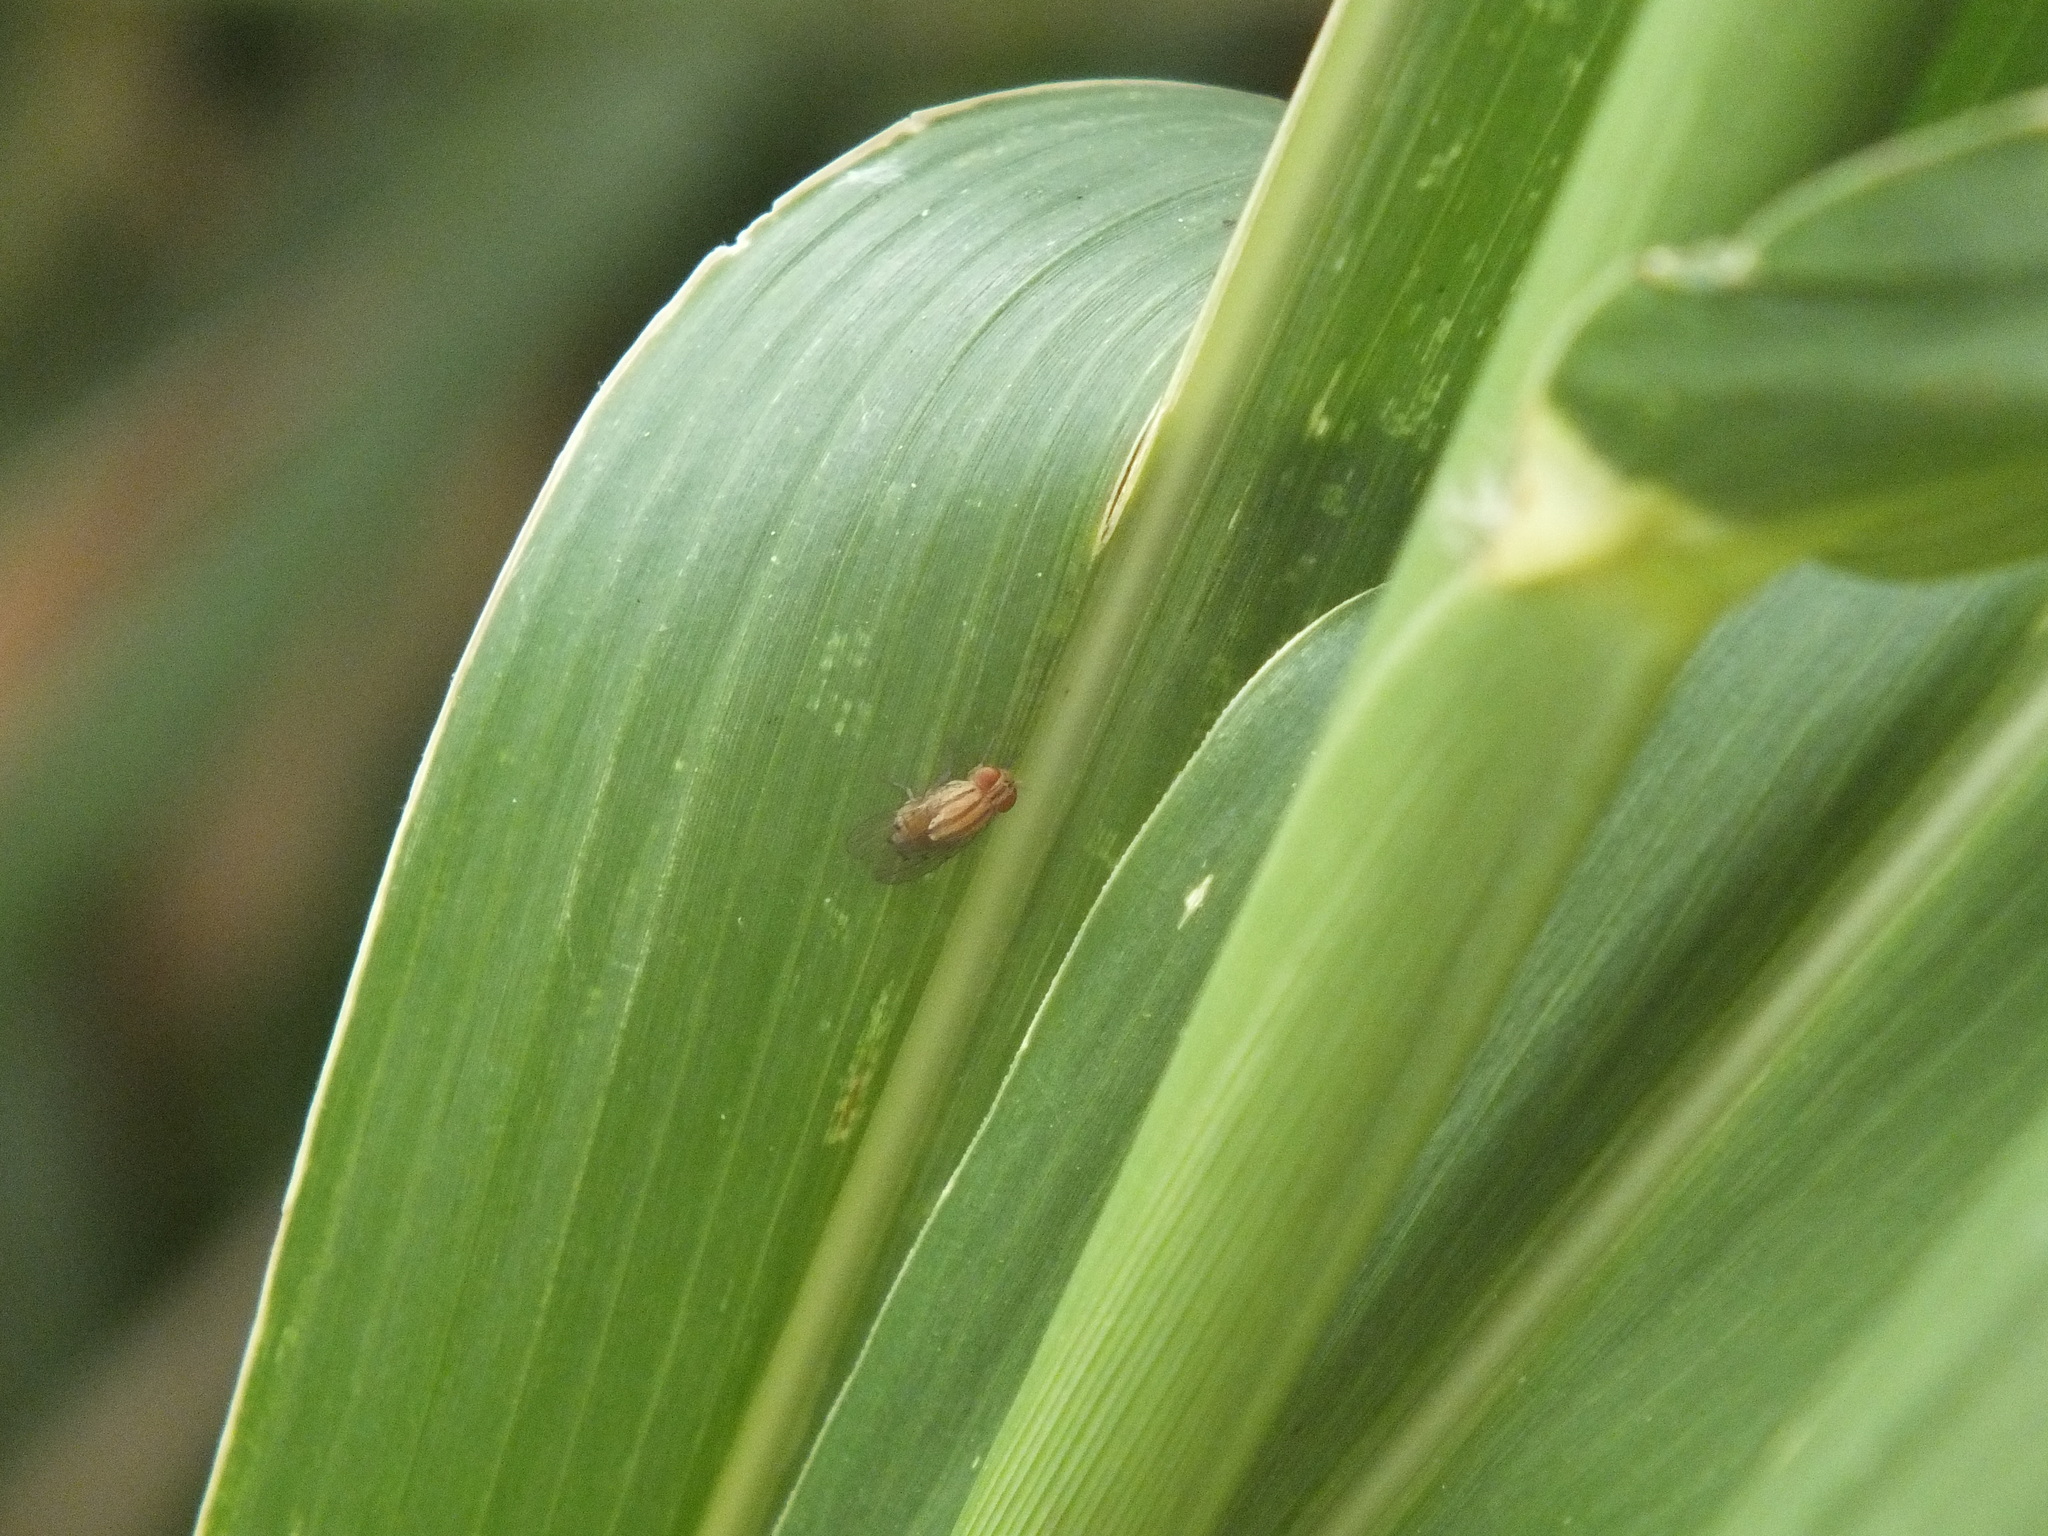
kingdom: Animalia
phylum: Arthropoda
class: Insecta
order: Diptera
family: Drosophilidae
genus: Drosophila
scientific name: Drosophila quadrilineata
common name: Pomace fly
